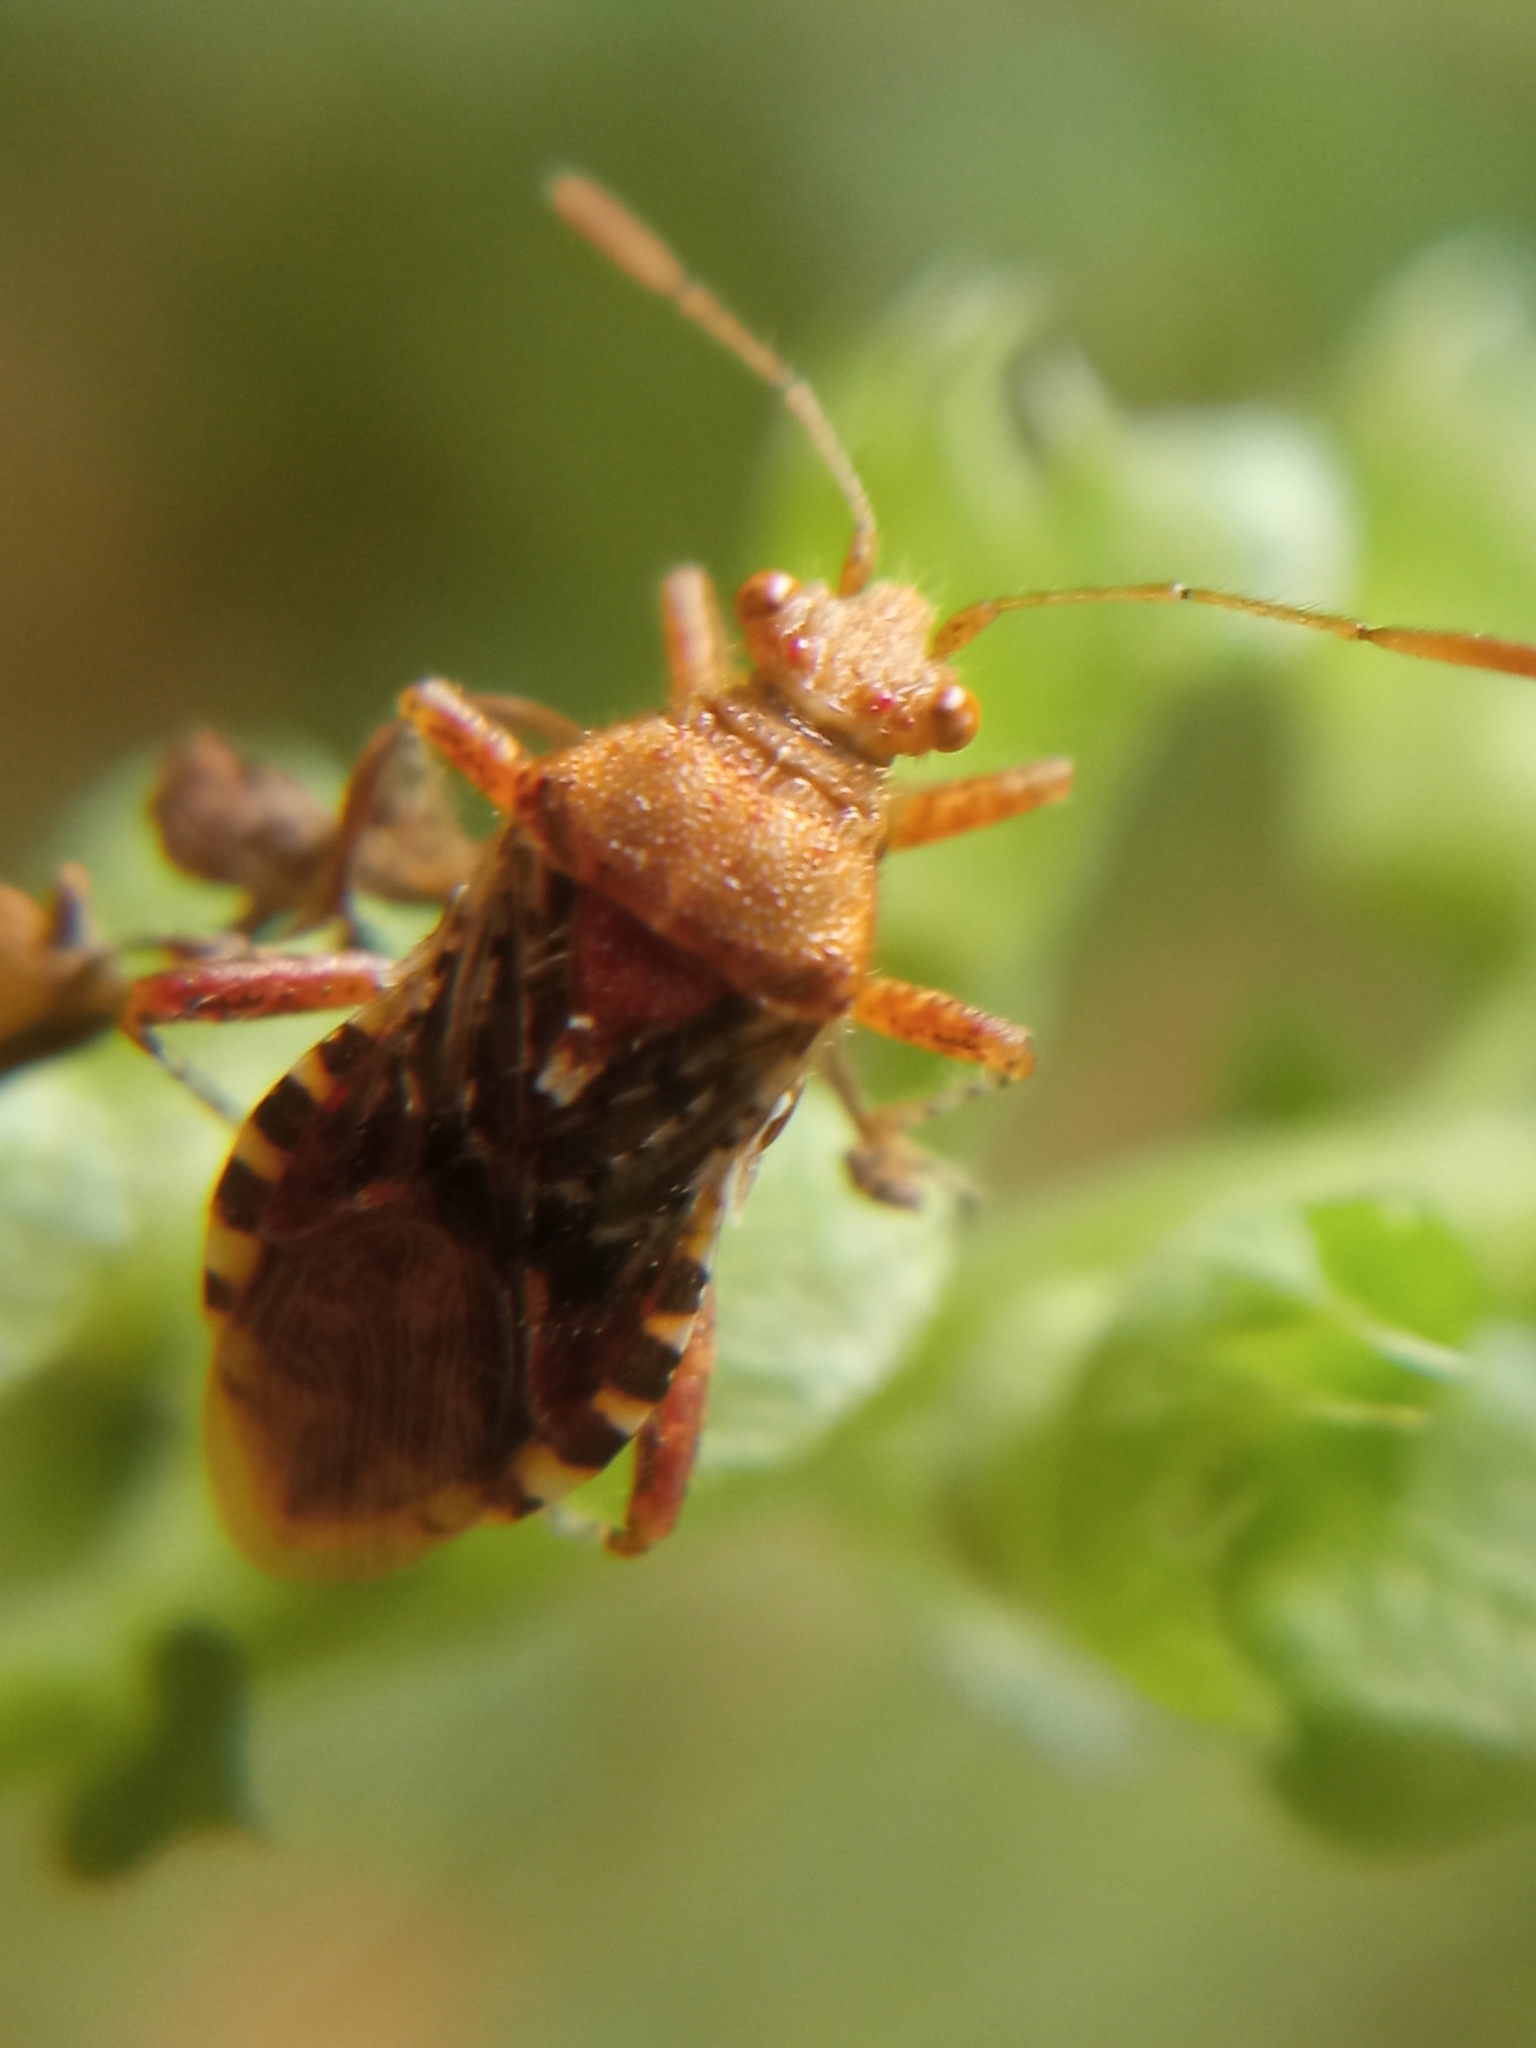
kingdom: Animalia
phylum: Arthropoda
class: Insecta
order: Hemiptera
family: Rhopalidae
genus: Rhopalus
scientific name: Rhopalus subrufus
